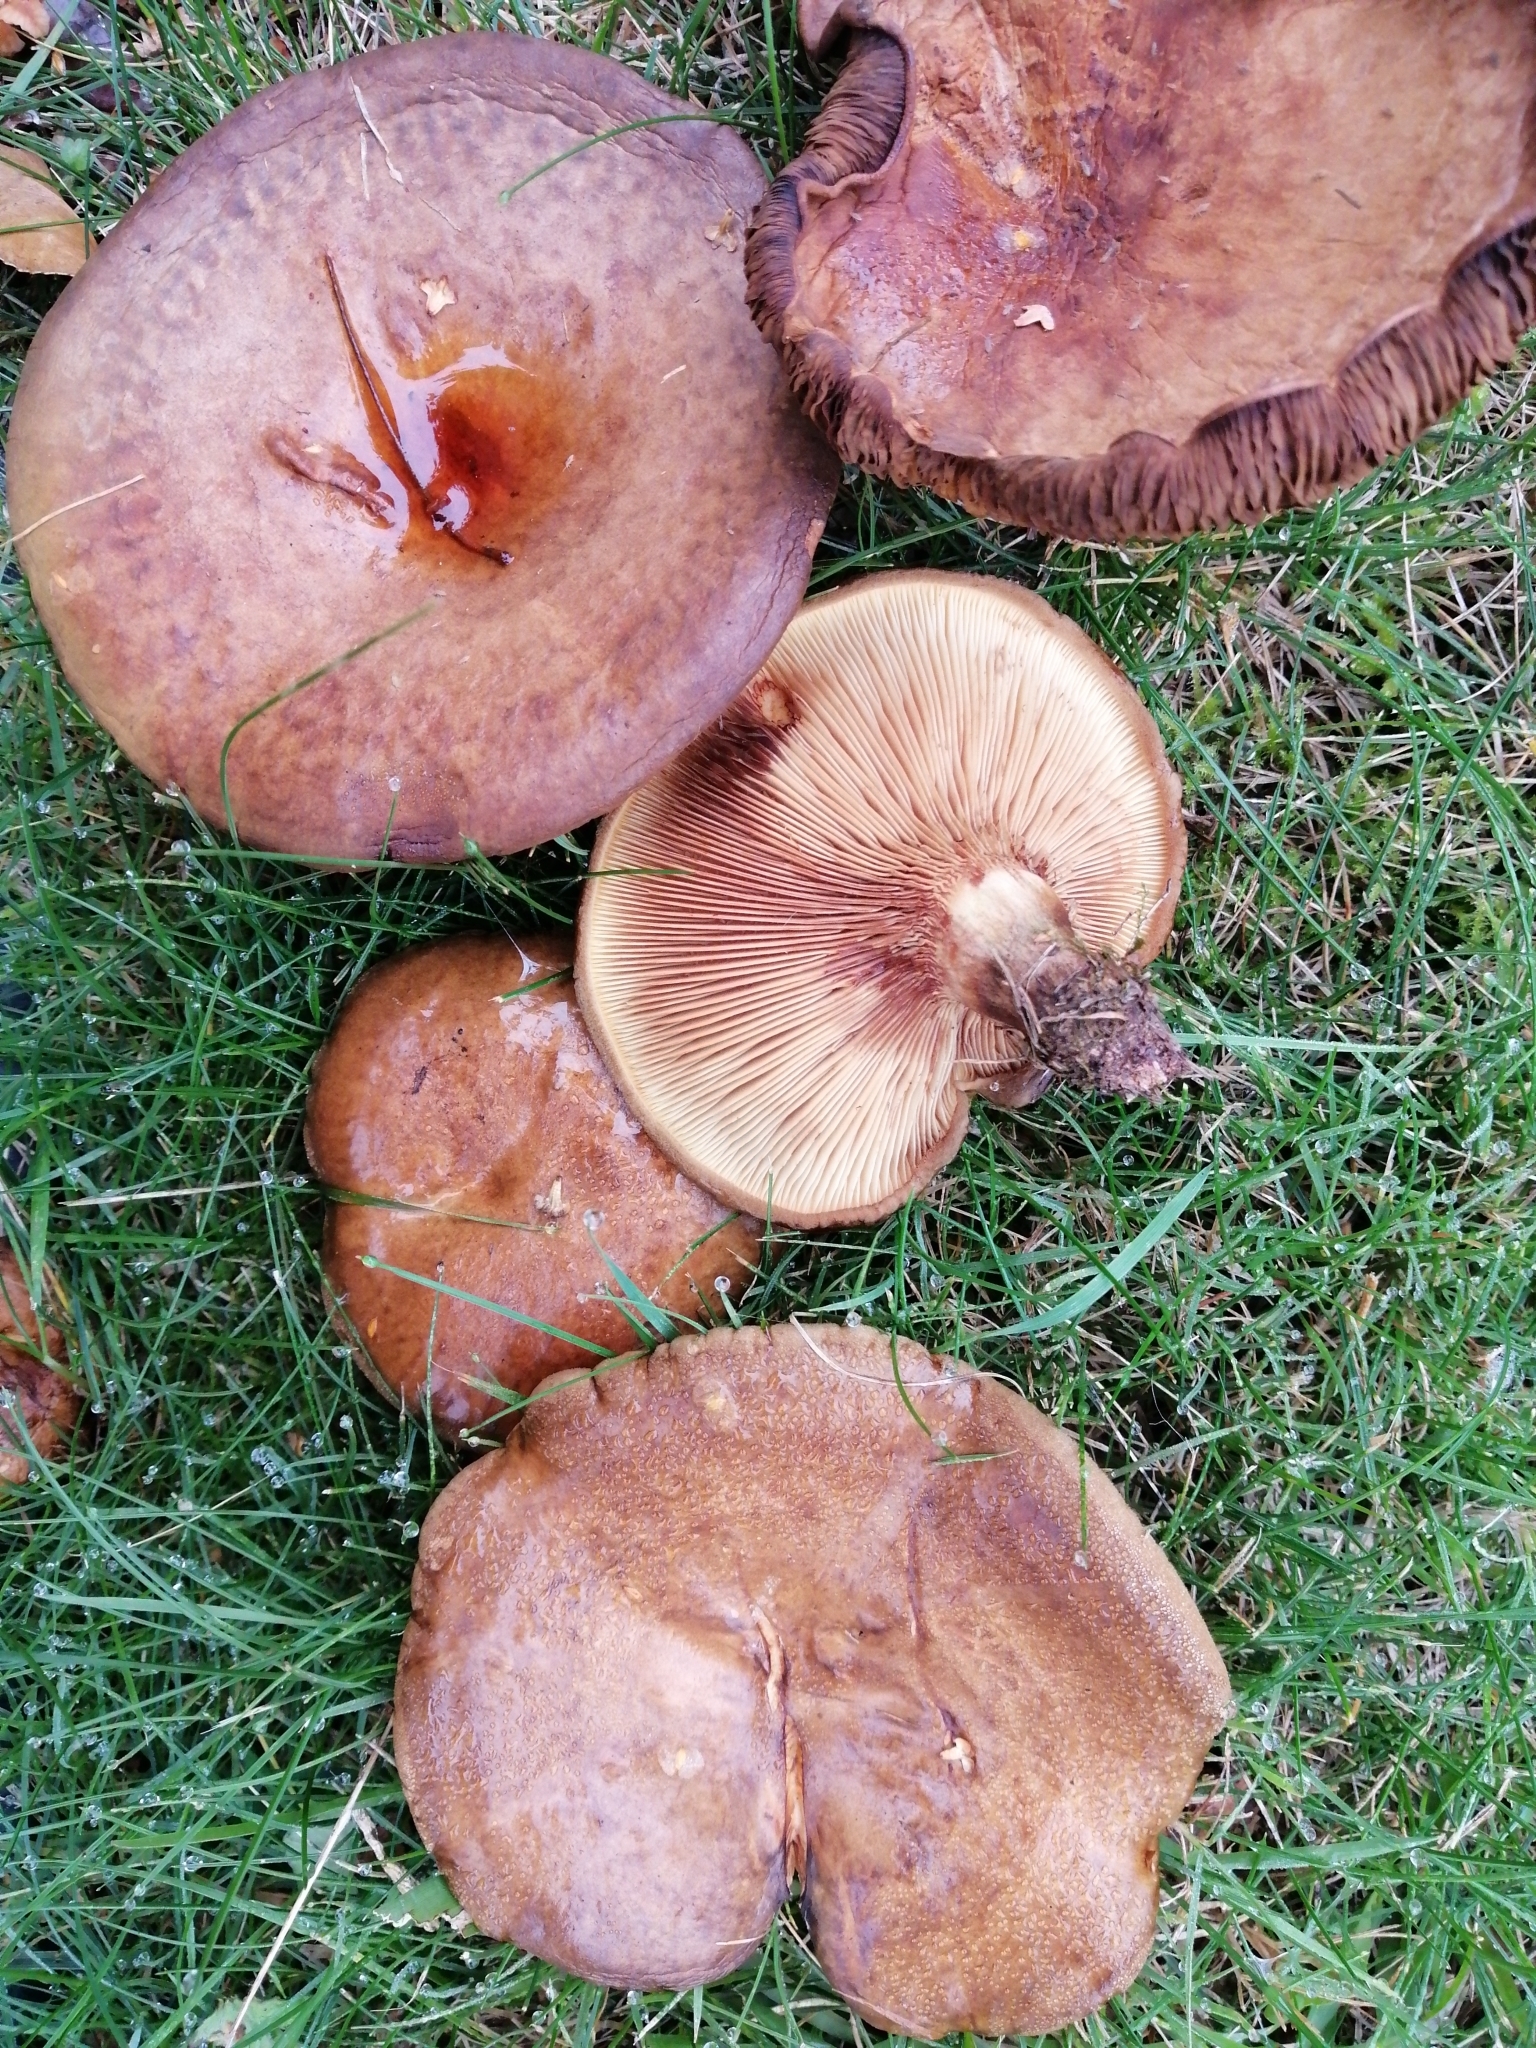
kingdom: Fungi
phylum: Basidiomycota
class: Agaricomycetes
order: Boletales
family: Paxillaceae
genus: Paxillus
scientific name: Paxillus cuprinus
